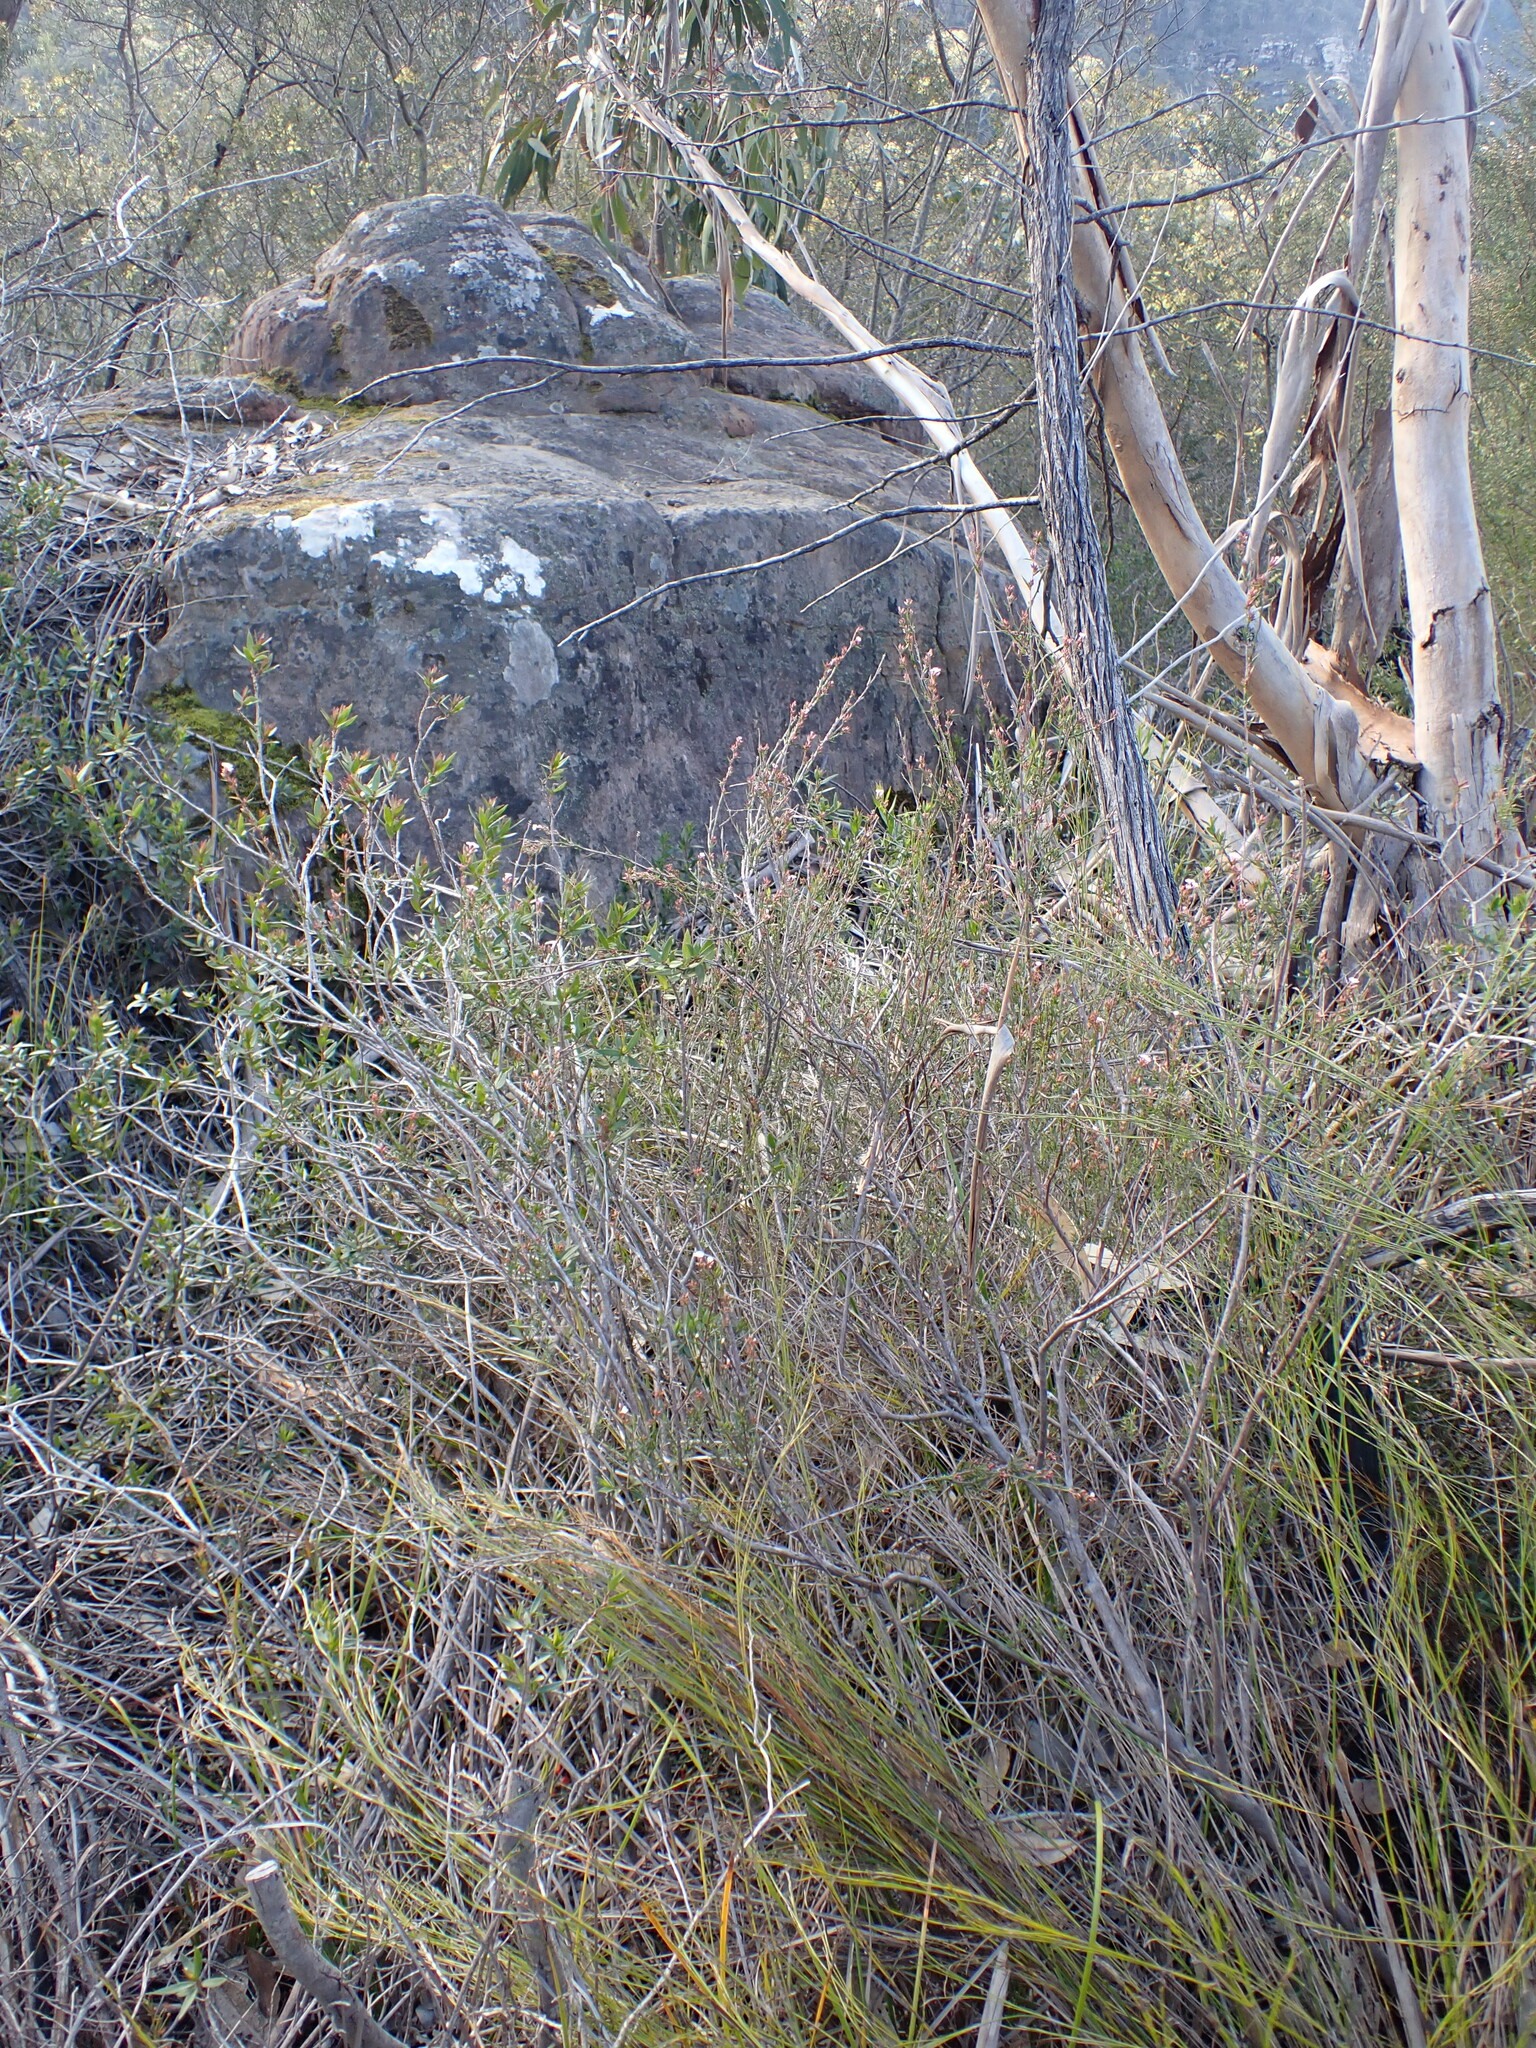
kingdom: Plantae
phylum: Tracheophyta
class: Magnoliopsida
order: Ericales
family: Ericaceae
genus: Leucopogon
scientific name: Leucopogon virgatus
